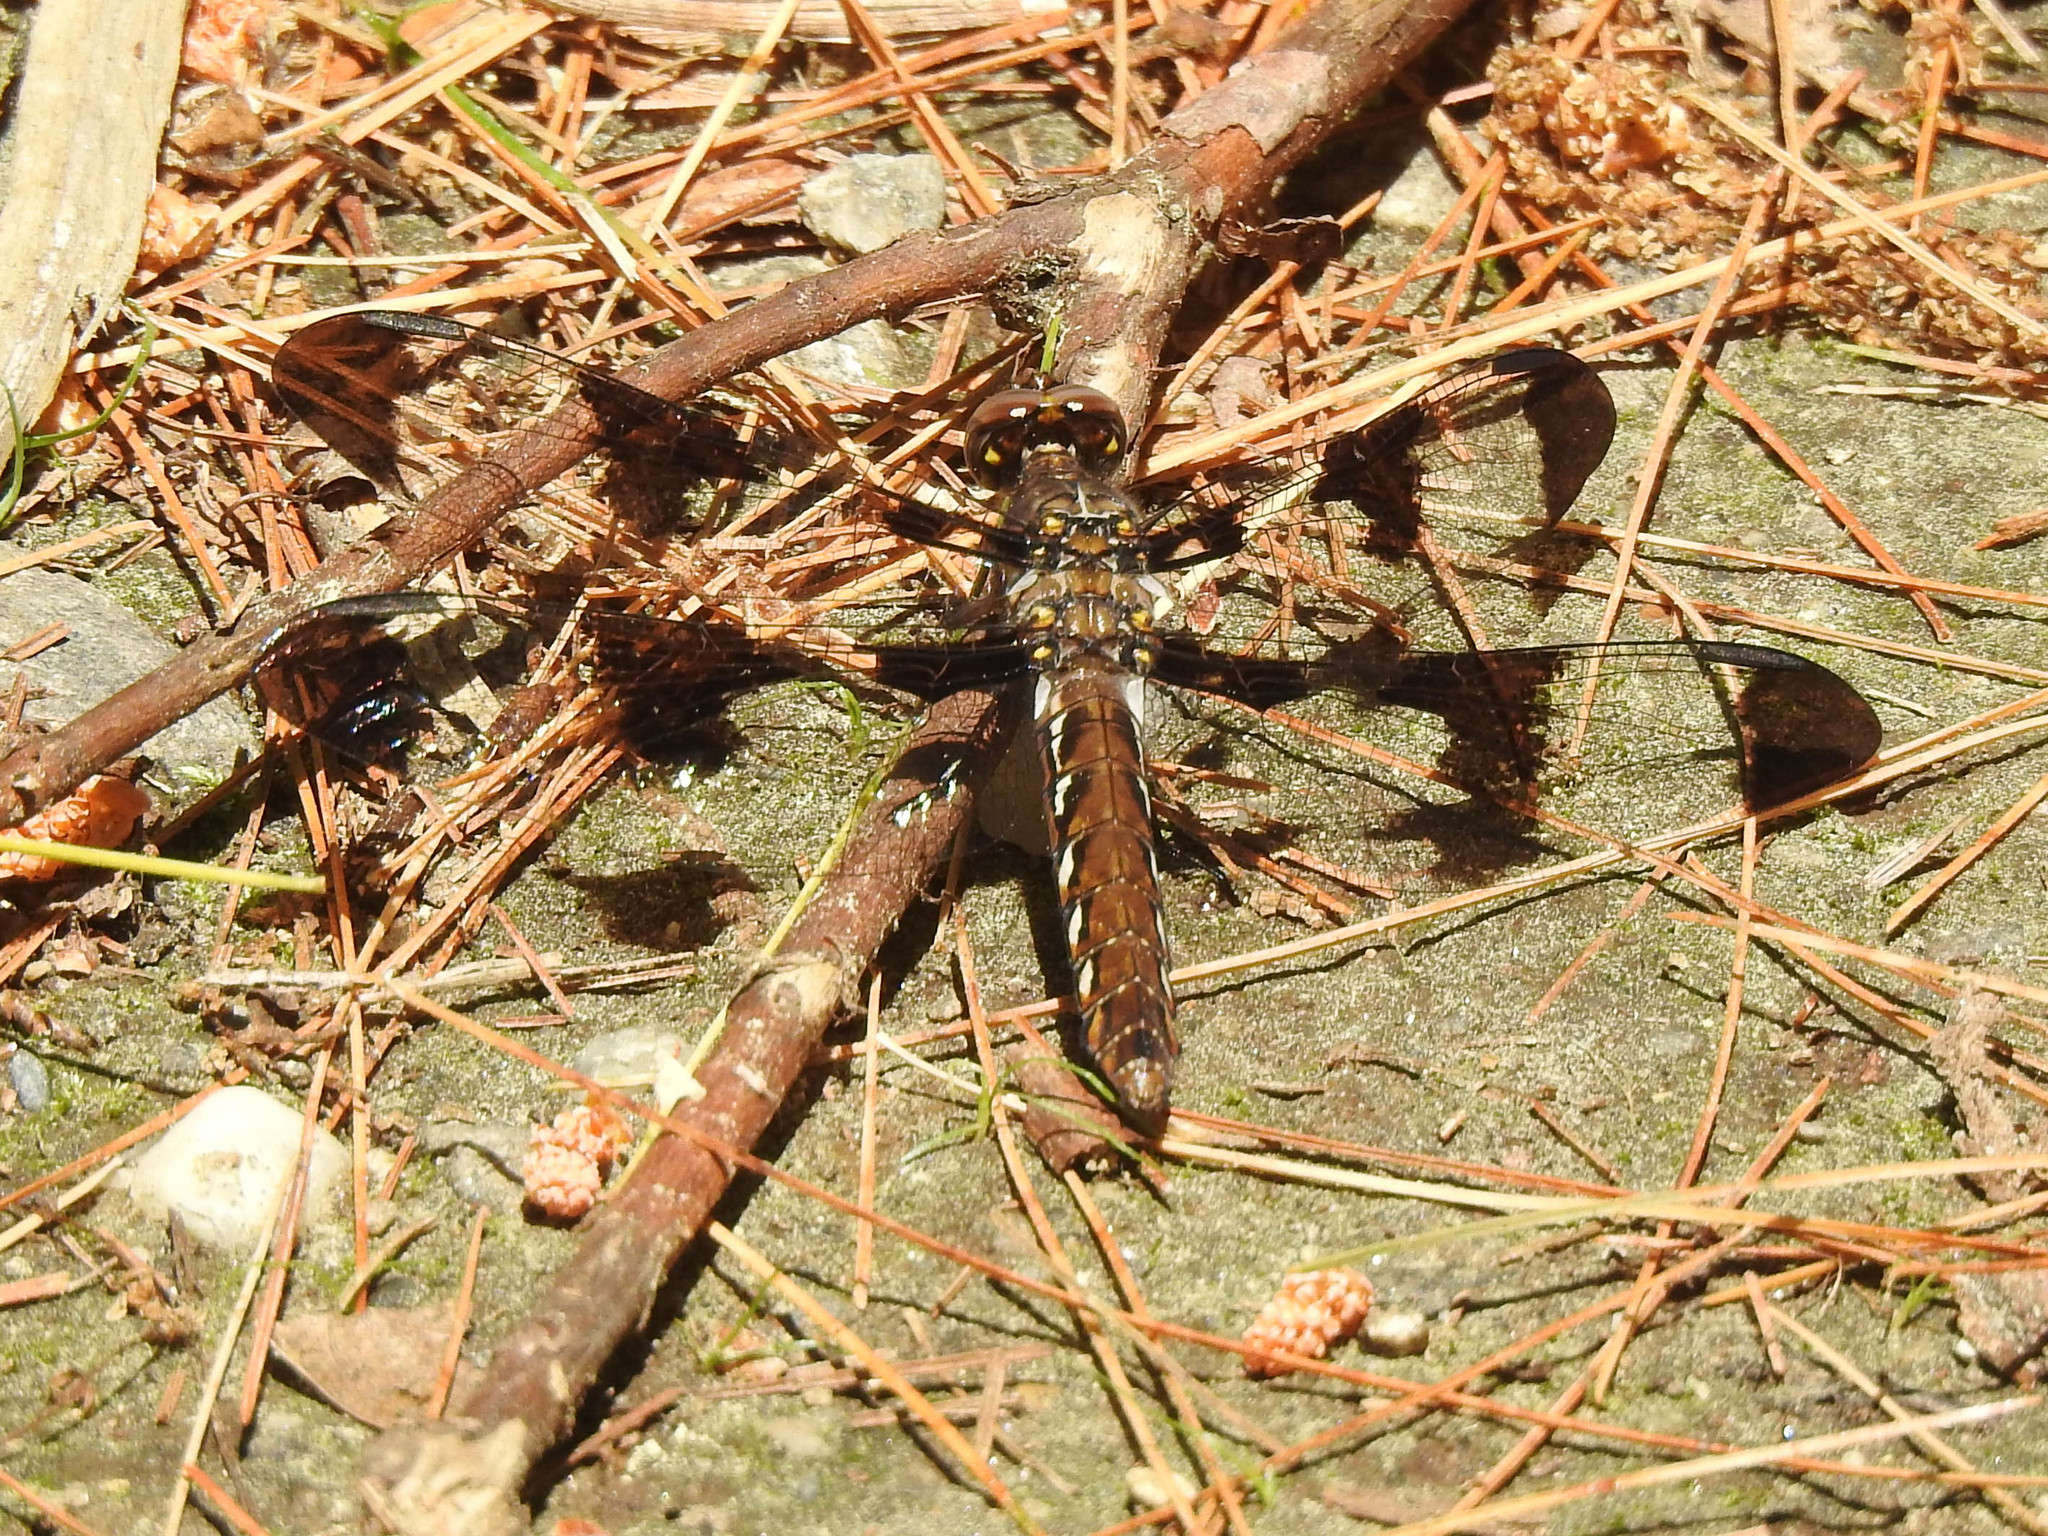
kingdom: Animalia
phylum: Arthropoda
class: Insecta
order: Odonata
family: Libellulidae
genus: Plathemis
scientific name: Plathemis lydia
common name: Common whitetail
